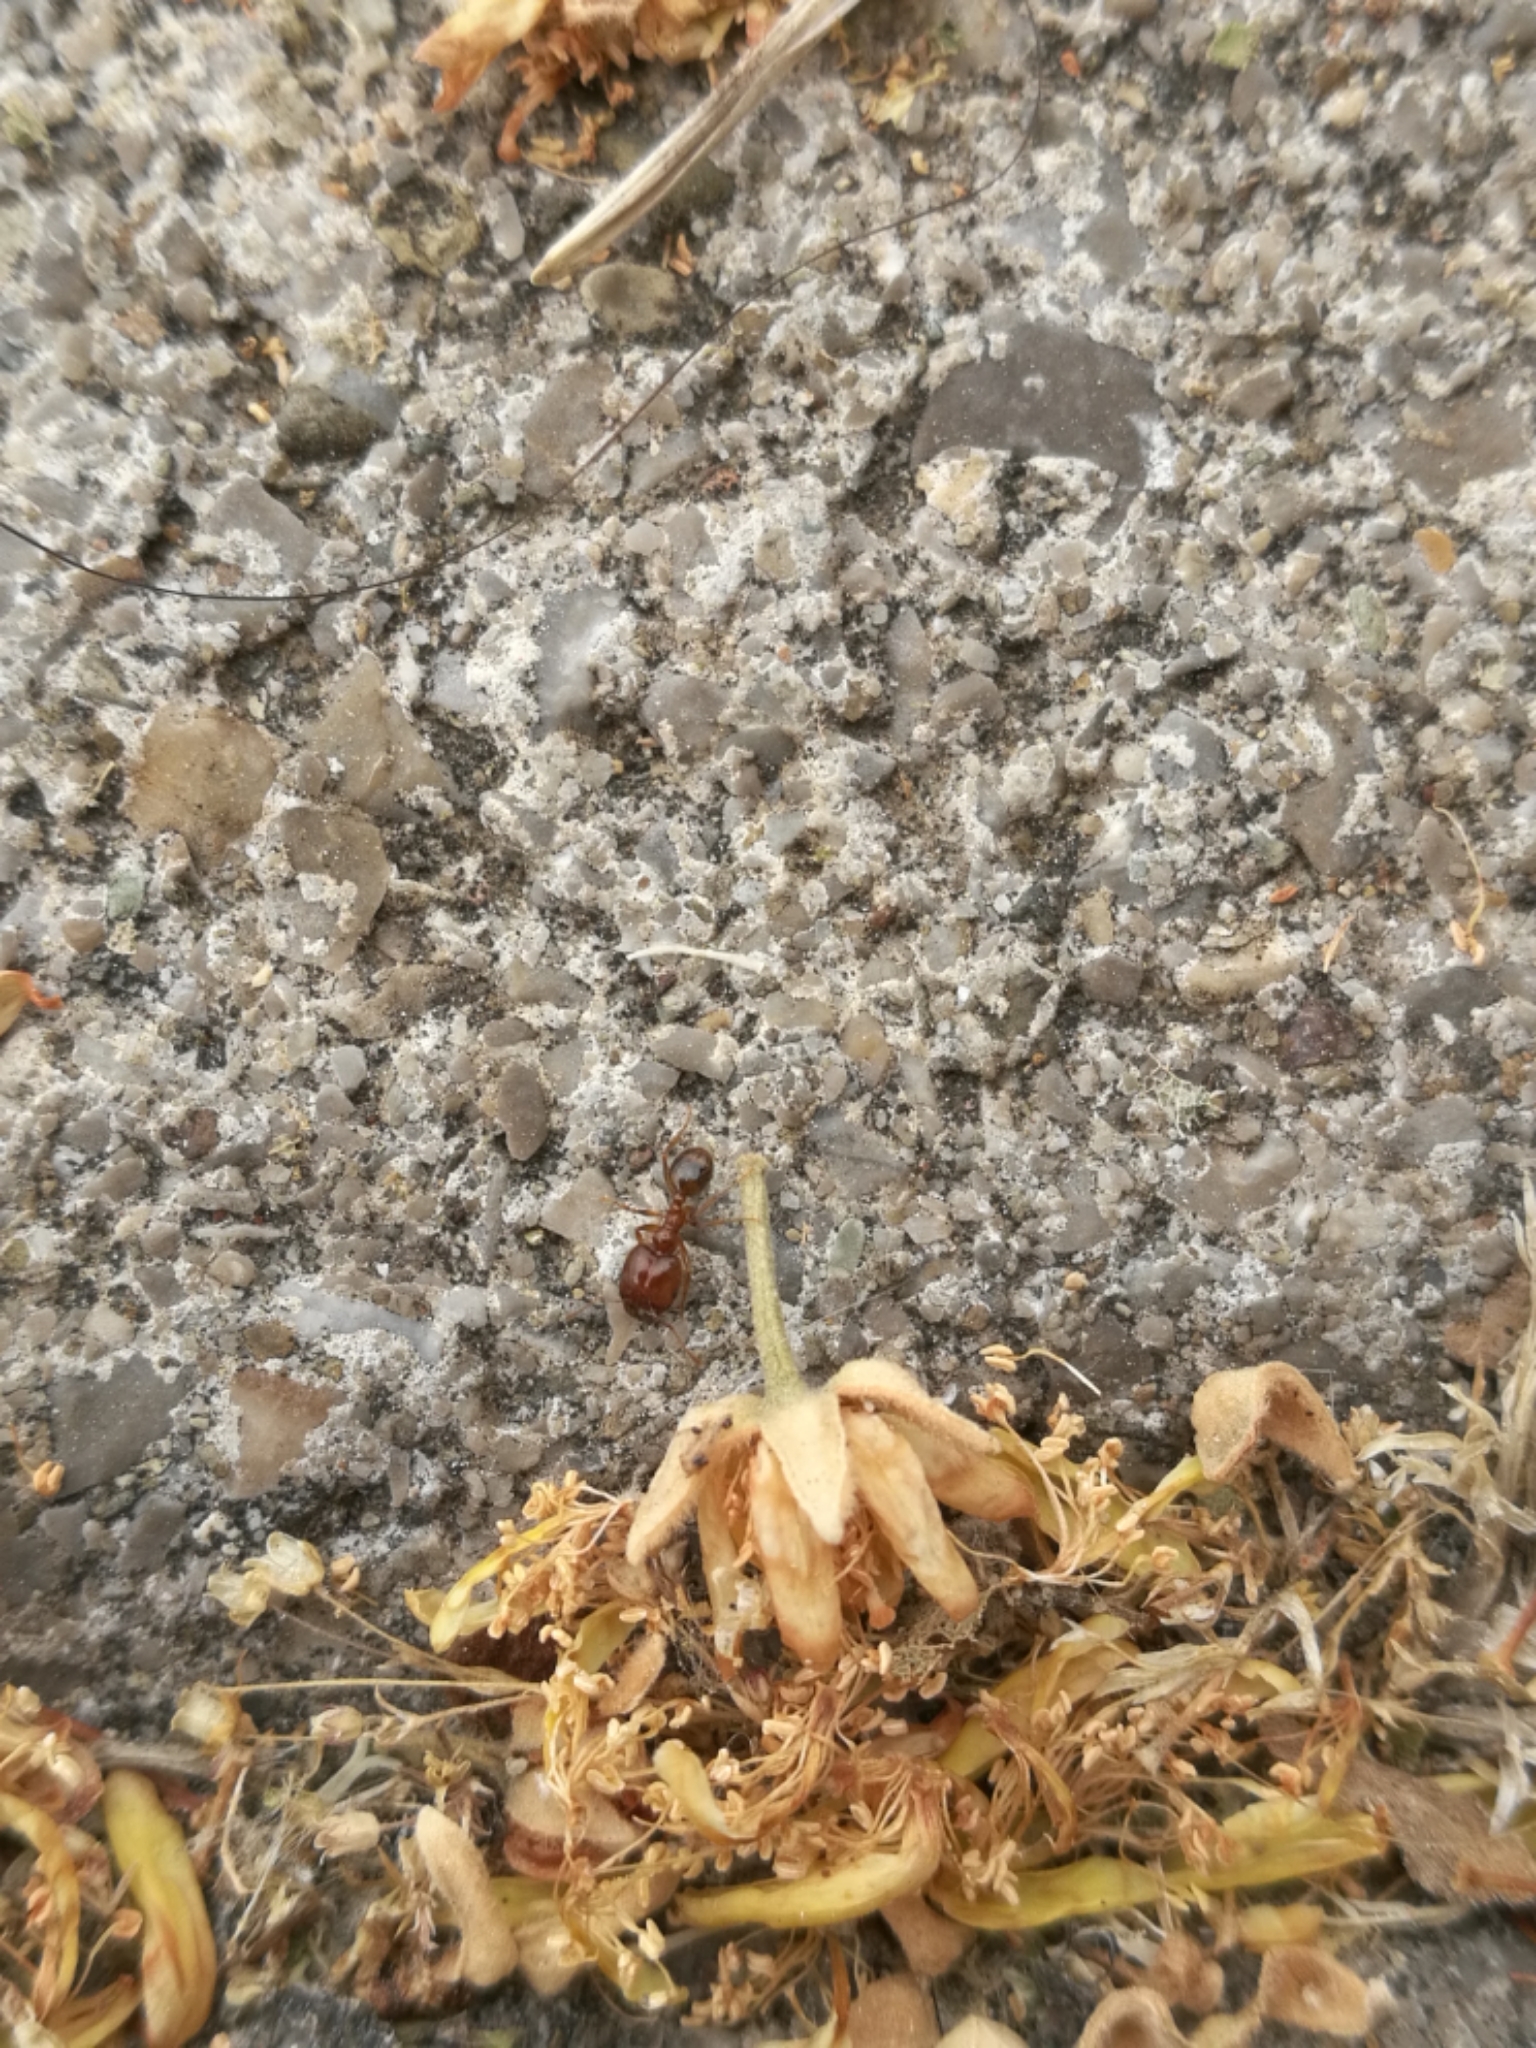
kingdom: Animalia
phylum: Arthropoda
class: Insecta
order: Hymenoptera
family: Formicidae
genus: Pheidole
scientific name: Pheidole pallidula
